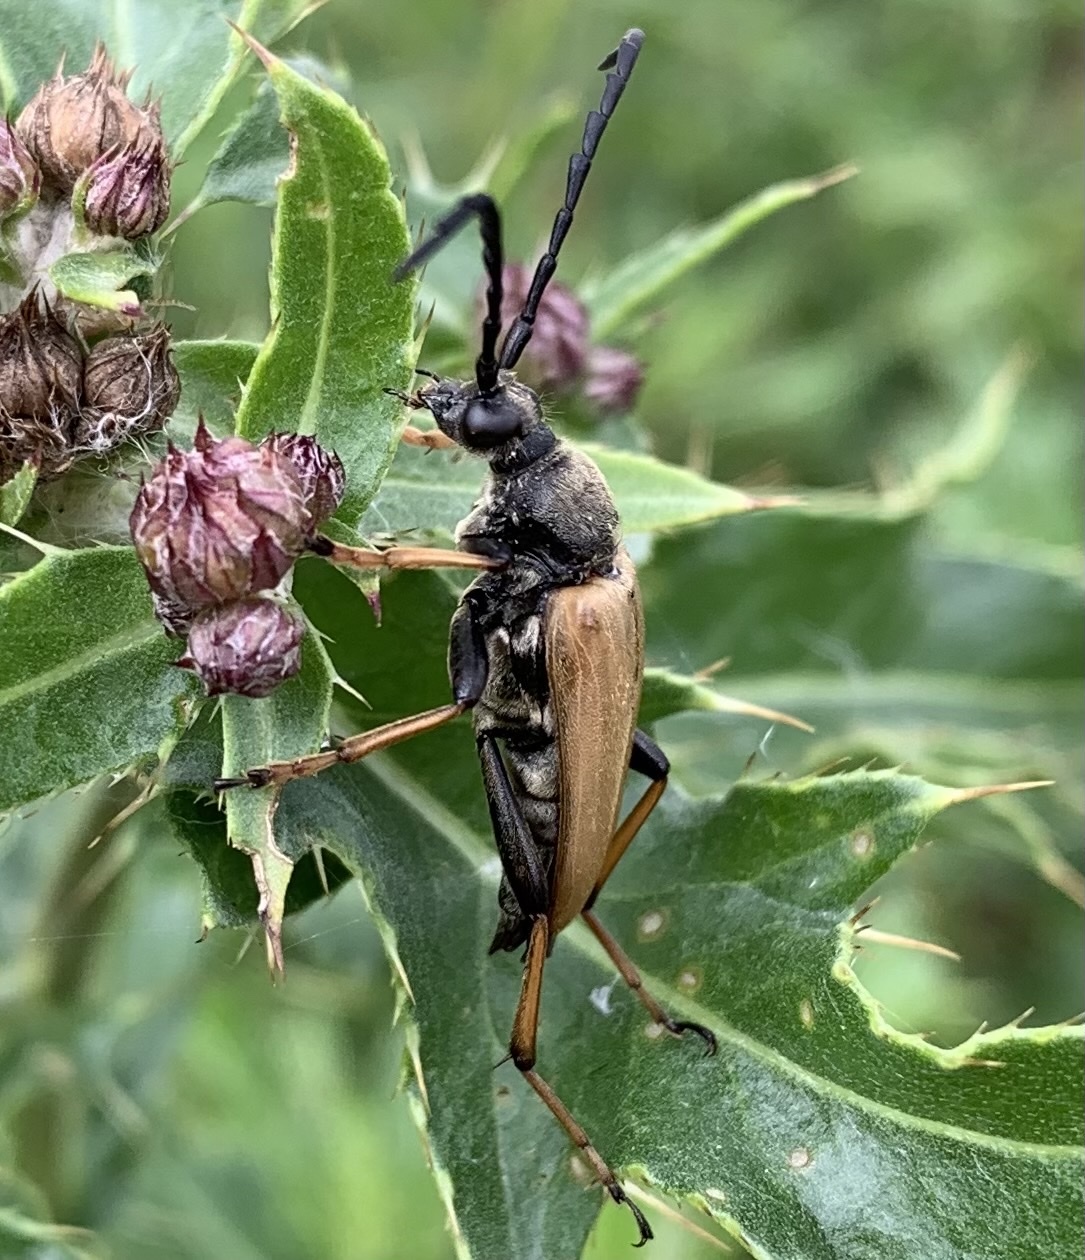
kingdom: Animalia
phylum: Arthropoda
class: Insecta
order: Coleoptera
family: Cerambycidae
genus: Stictoleptura
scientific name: Stictoleptura rubra
